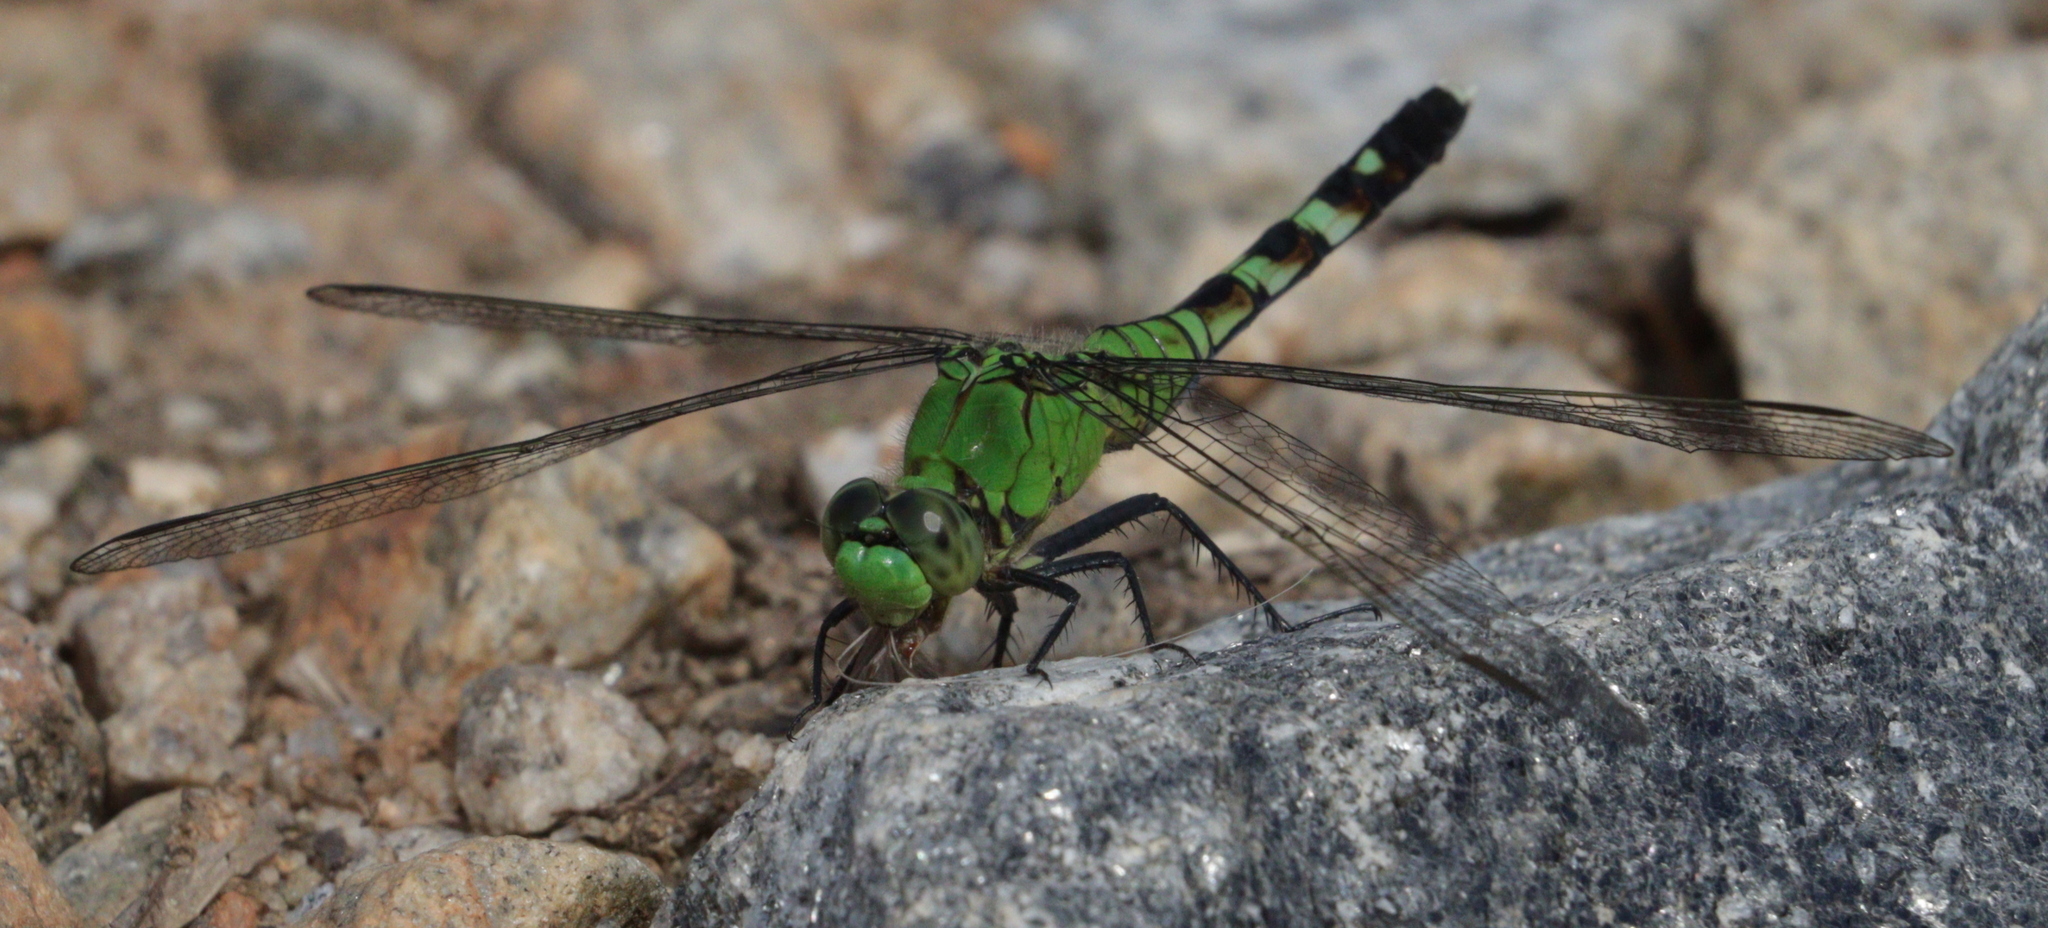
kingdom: Animalia
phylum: Arthropoda
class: Insecta
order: Odonata
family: Libellulidae
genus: Erythemis
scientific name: Erythemis simplicicollis
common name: Eastern pondhawk
